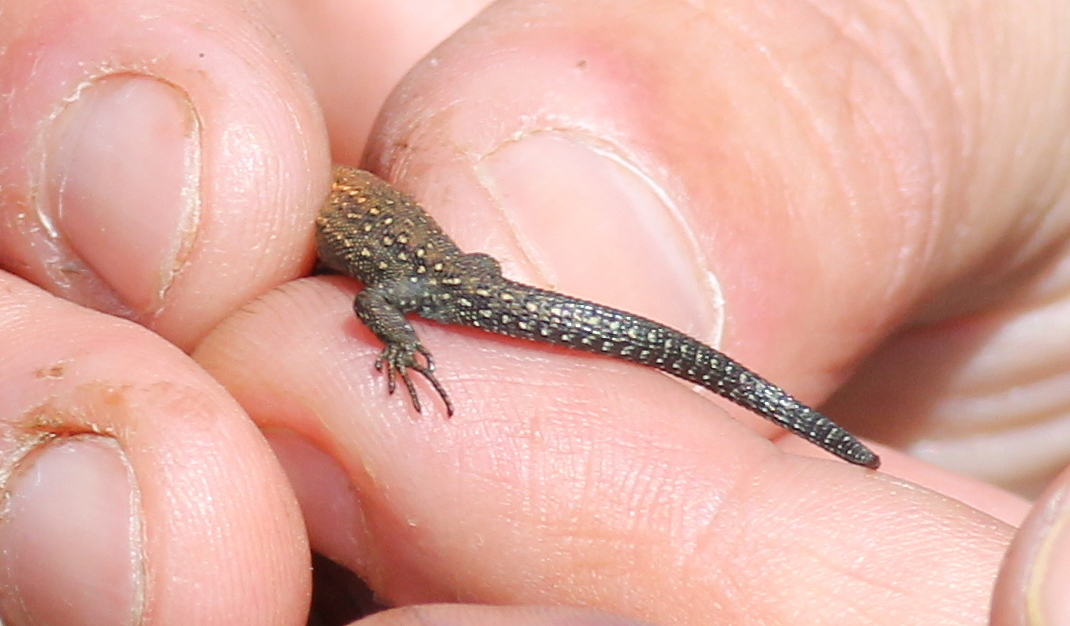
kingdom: Animalia
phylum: Chordata
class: Squamata
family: Lacertidae
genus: Zootoca
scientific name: Zootoca vivipara
